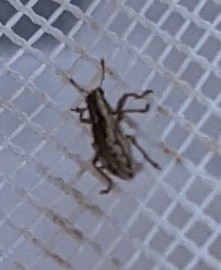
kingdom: Animalia
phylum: Arthropoda
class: Insecta
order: Coleoptera
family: Curculionidae
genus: Sitona
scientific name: Sitona lineellus
